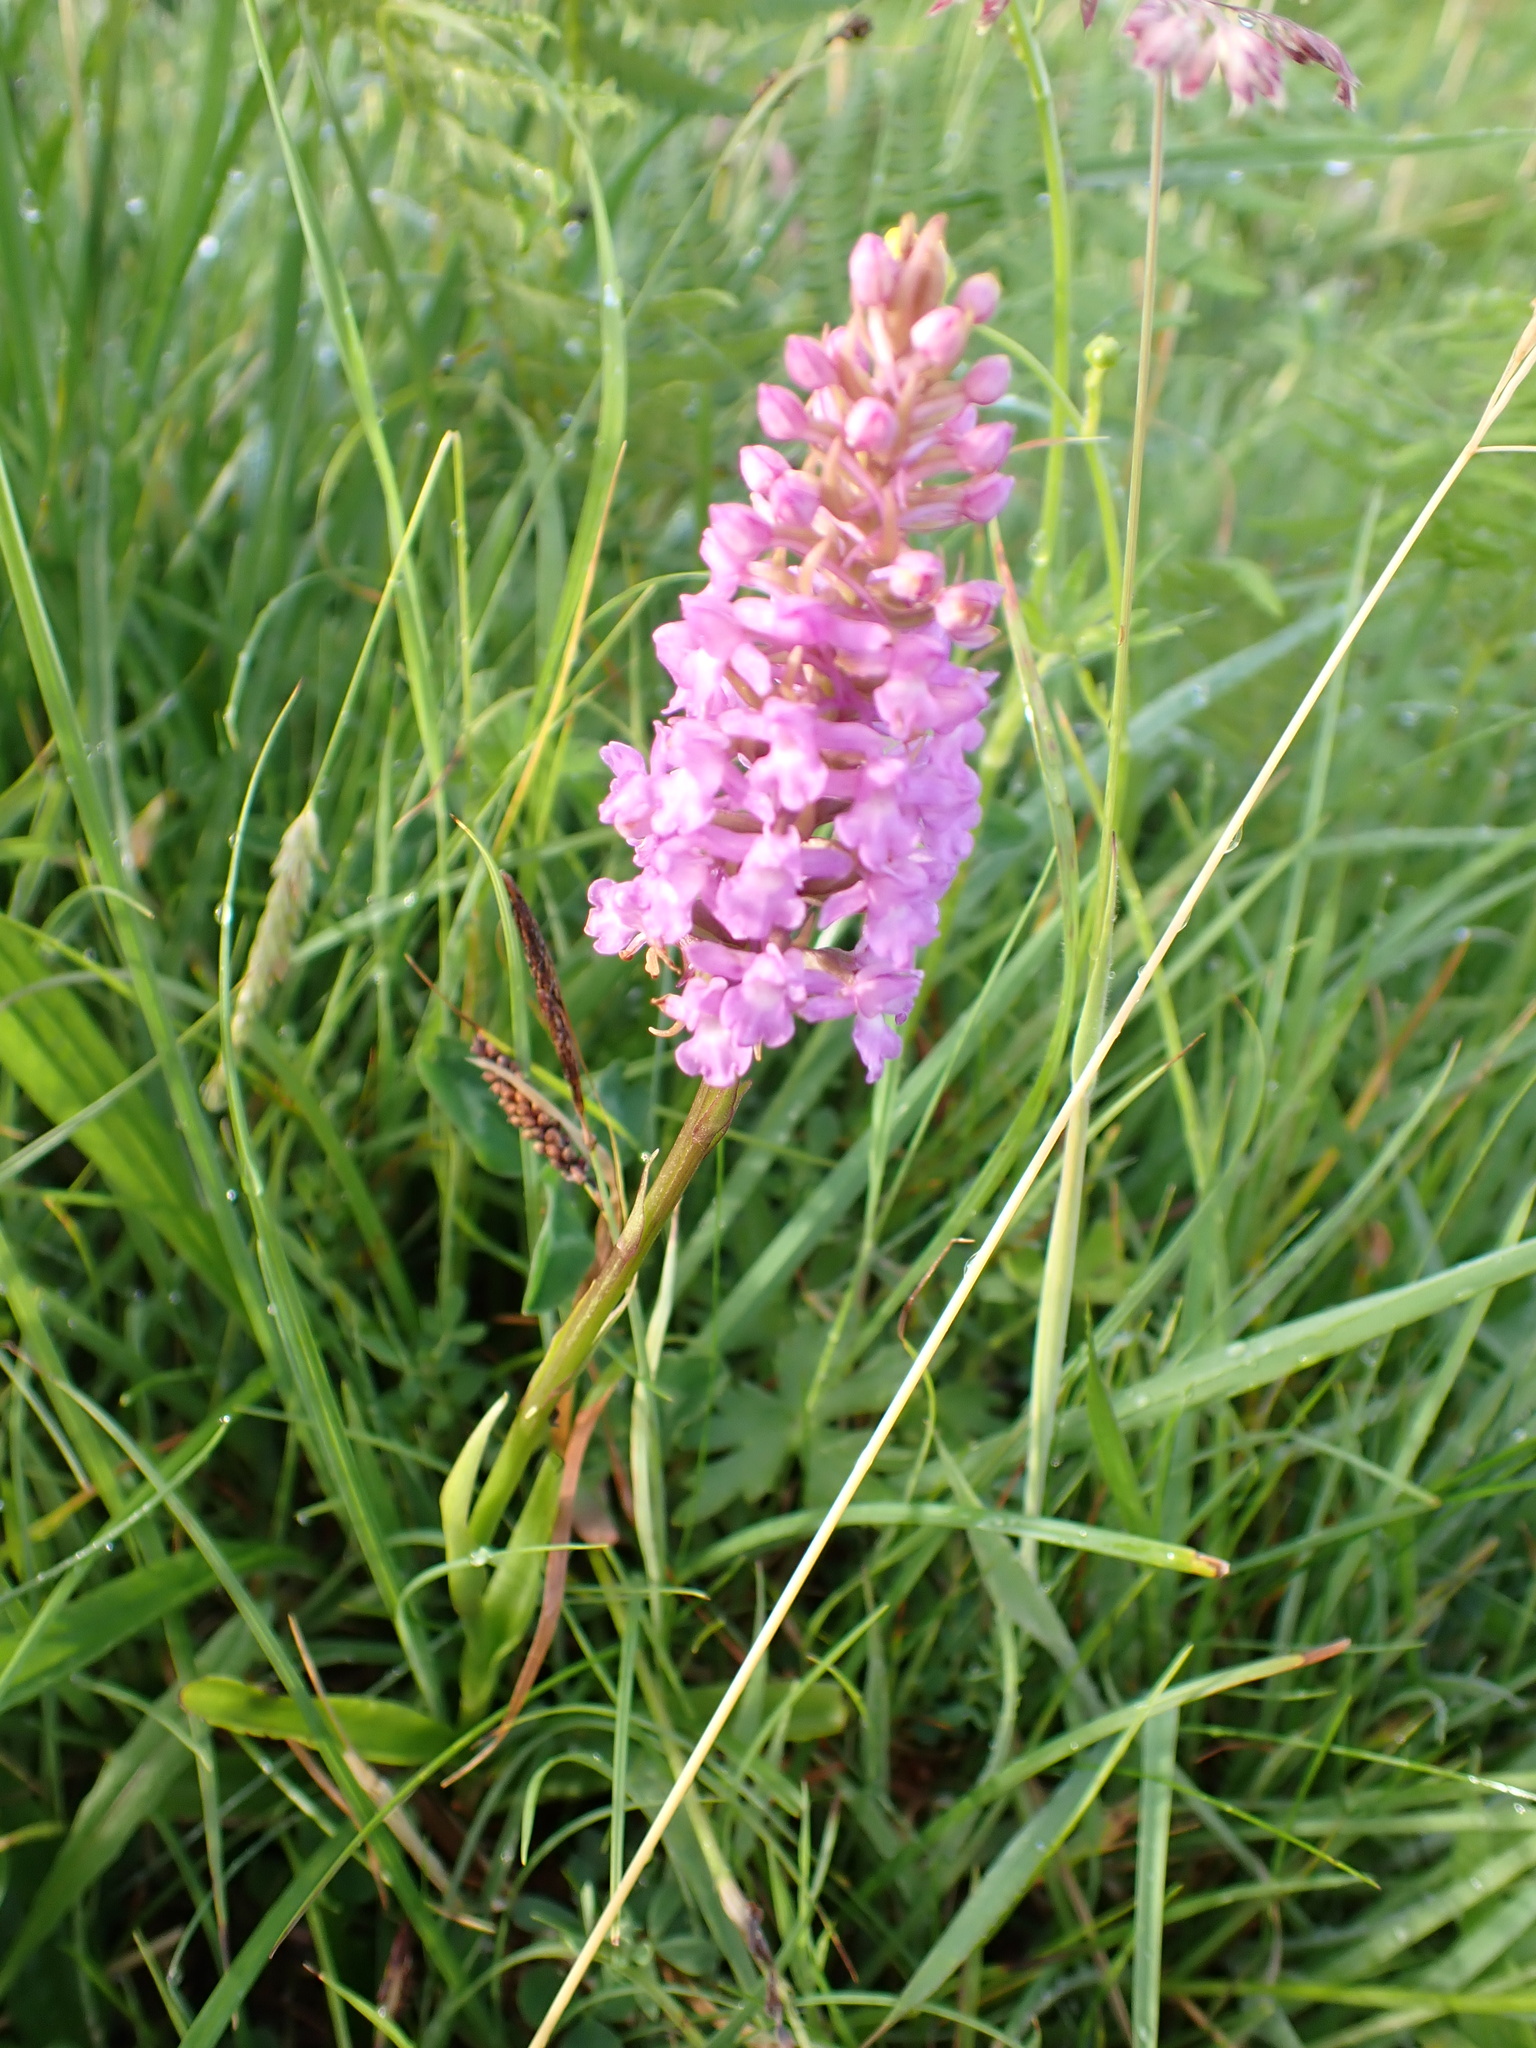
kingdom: Plantae
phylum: Tracheophyta
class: Liliopsida
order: Asparagales
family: Orchidaceae
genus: Gymnadenia
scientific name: Gymnadenia borealis
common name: Heath fragrant orchid
